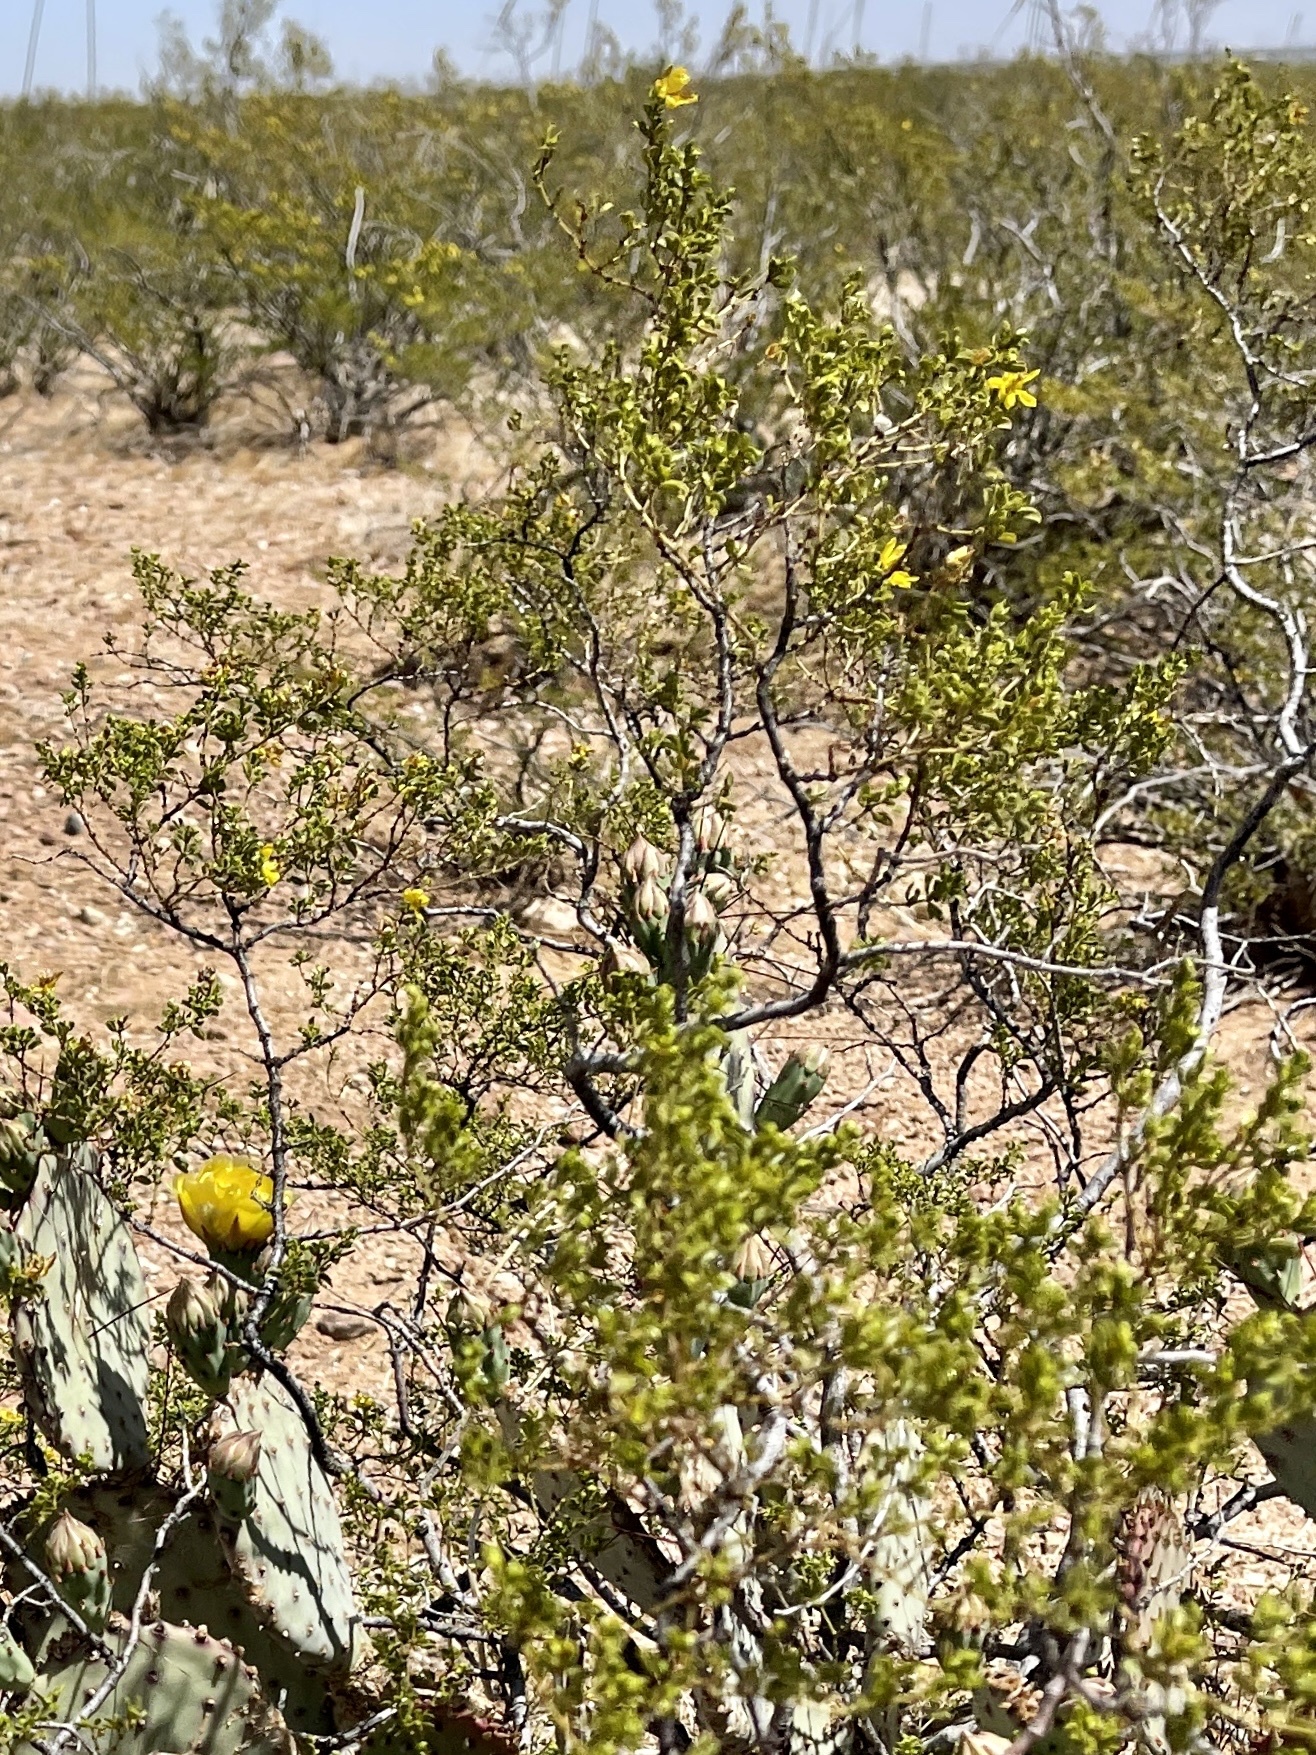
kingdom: Plantae
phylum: Tracheophyta
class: Magnoliopsida
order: Zygophyllales
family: Zygophyllaceae
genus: Larrea
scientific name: Larrea tridentata
